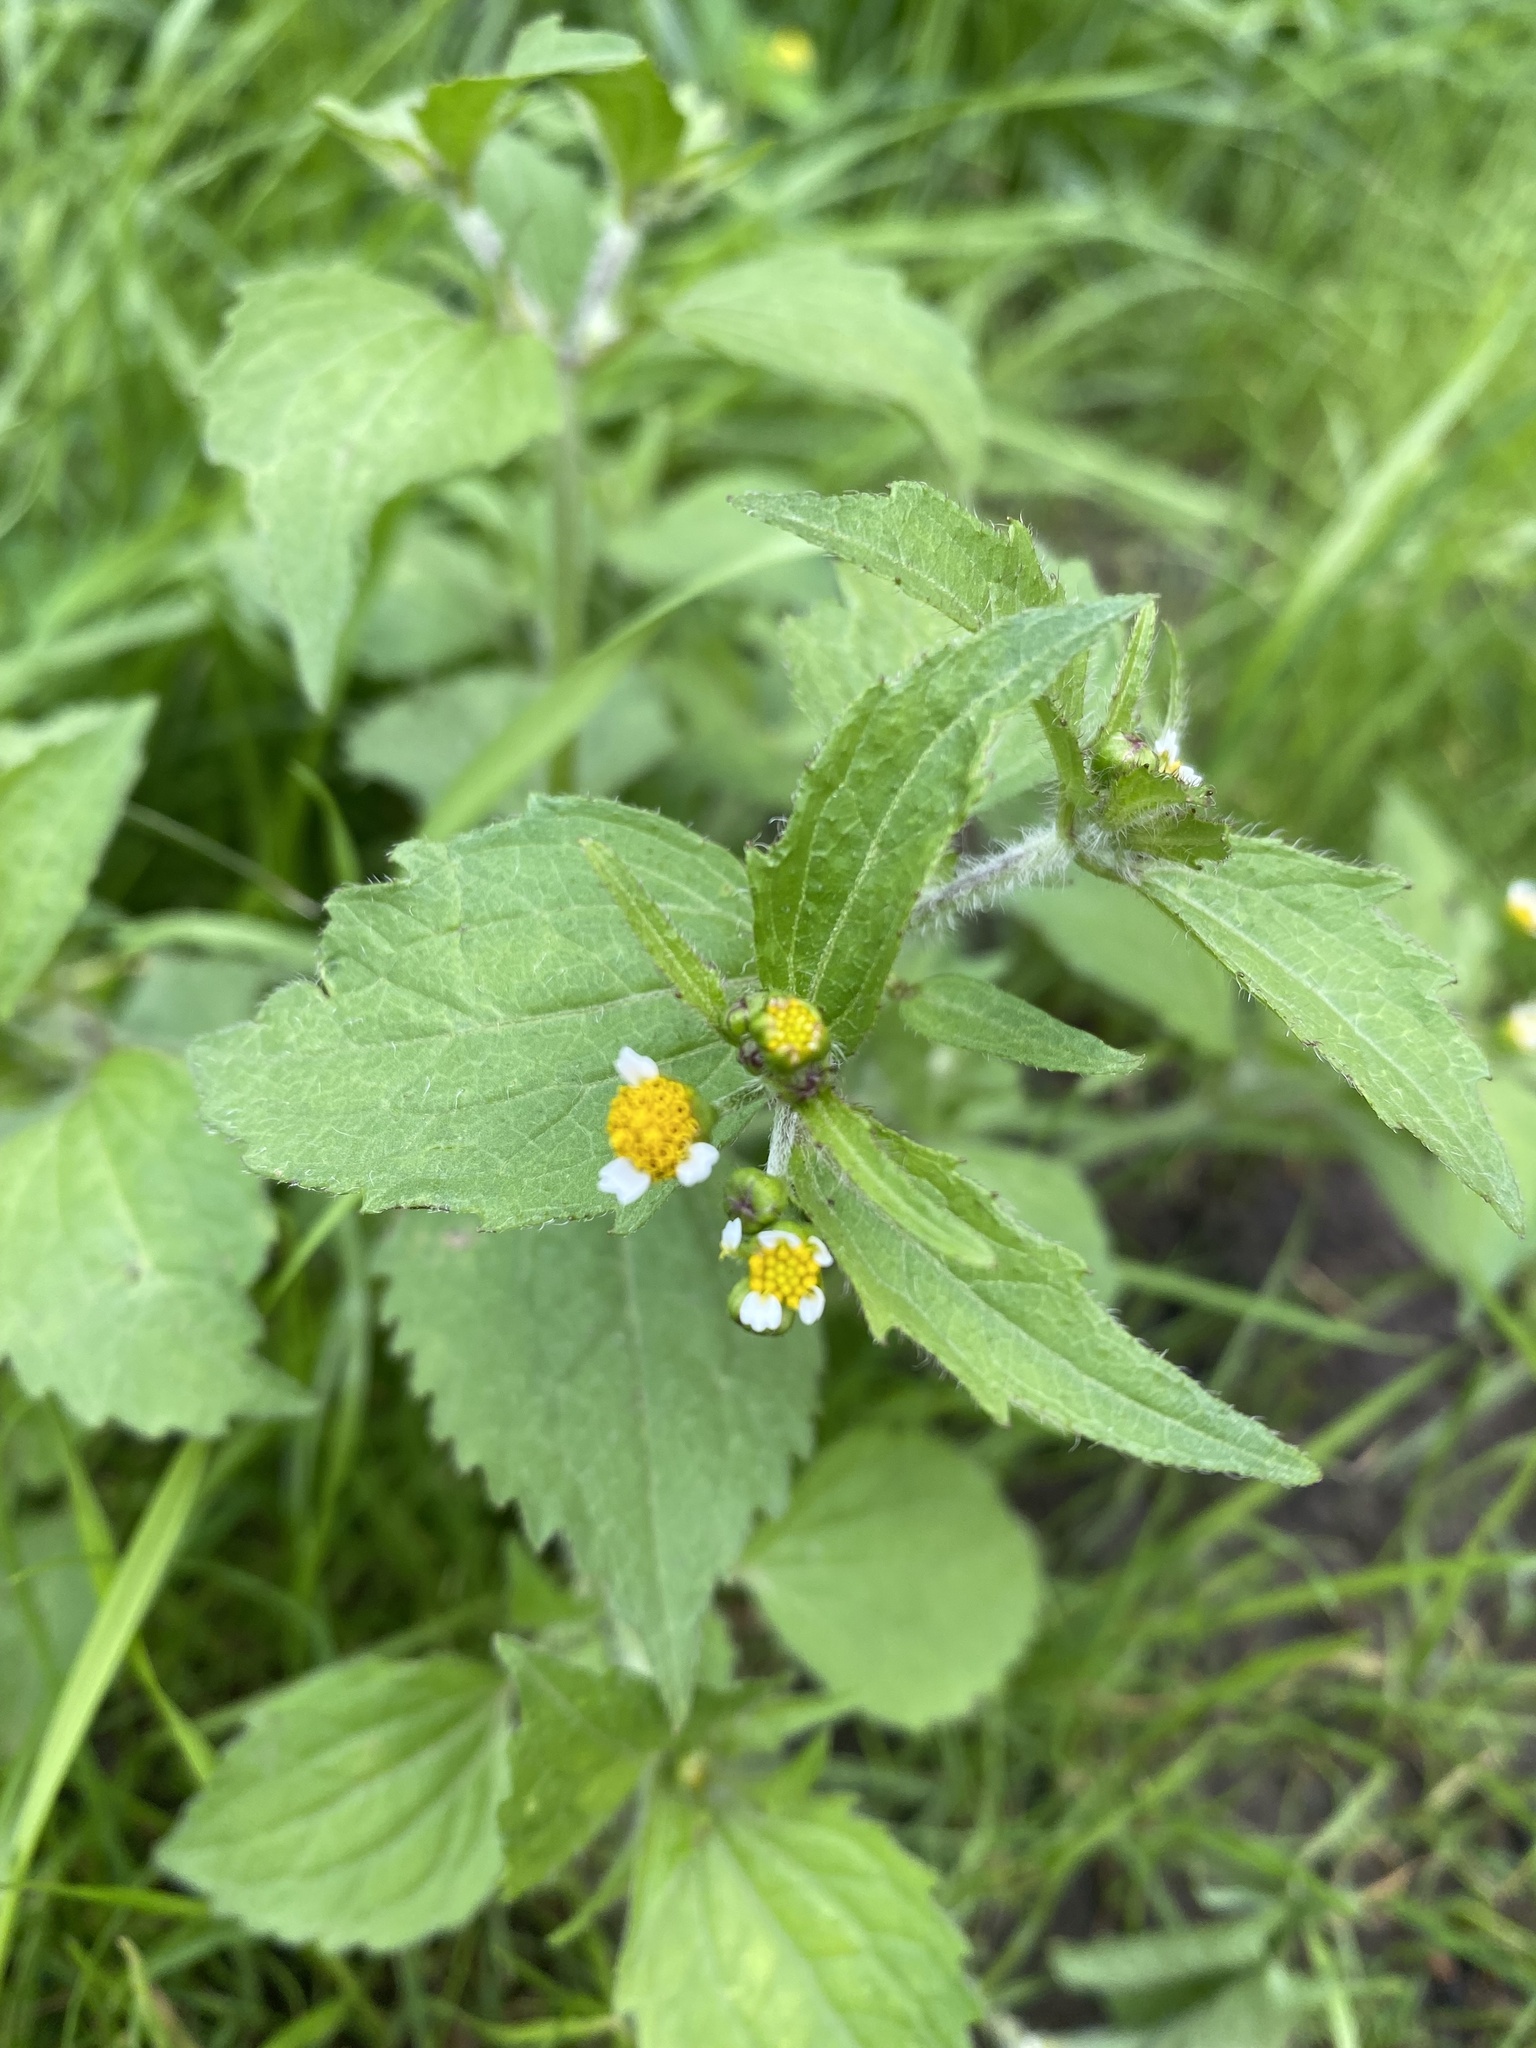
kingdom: Plantae
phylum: Tracheophyta
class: Magnoliopsida
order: Asterales
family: Asteraceae
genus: Galinsoga
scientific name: Galinsoga quadriradiata
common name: Shaggy soldier
